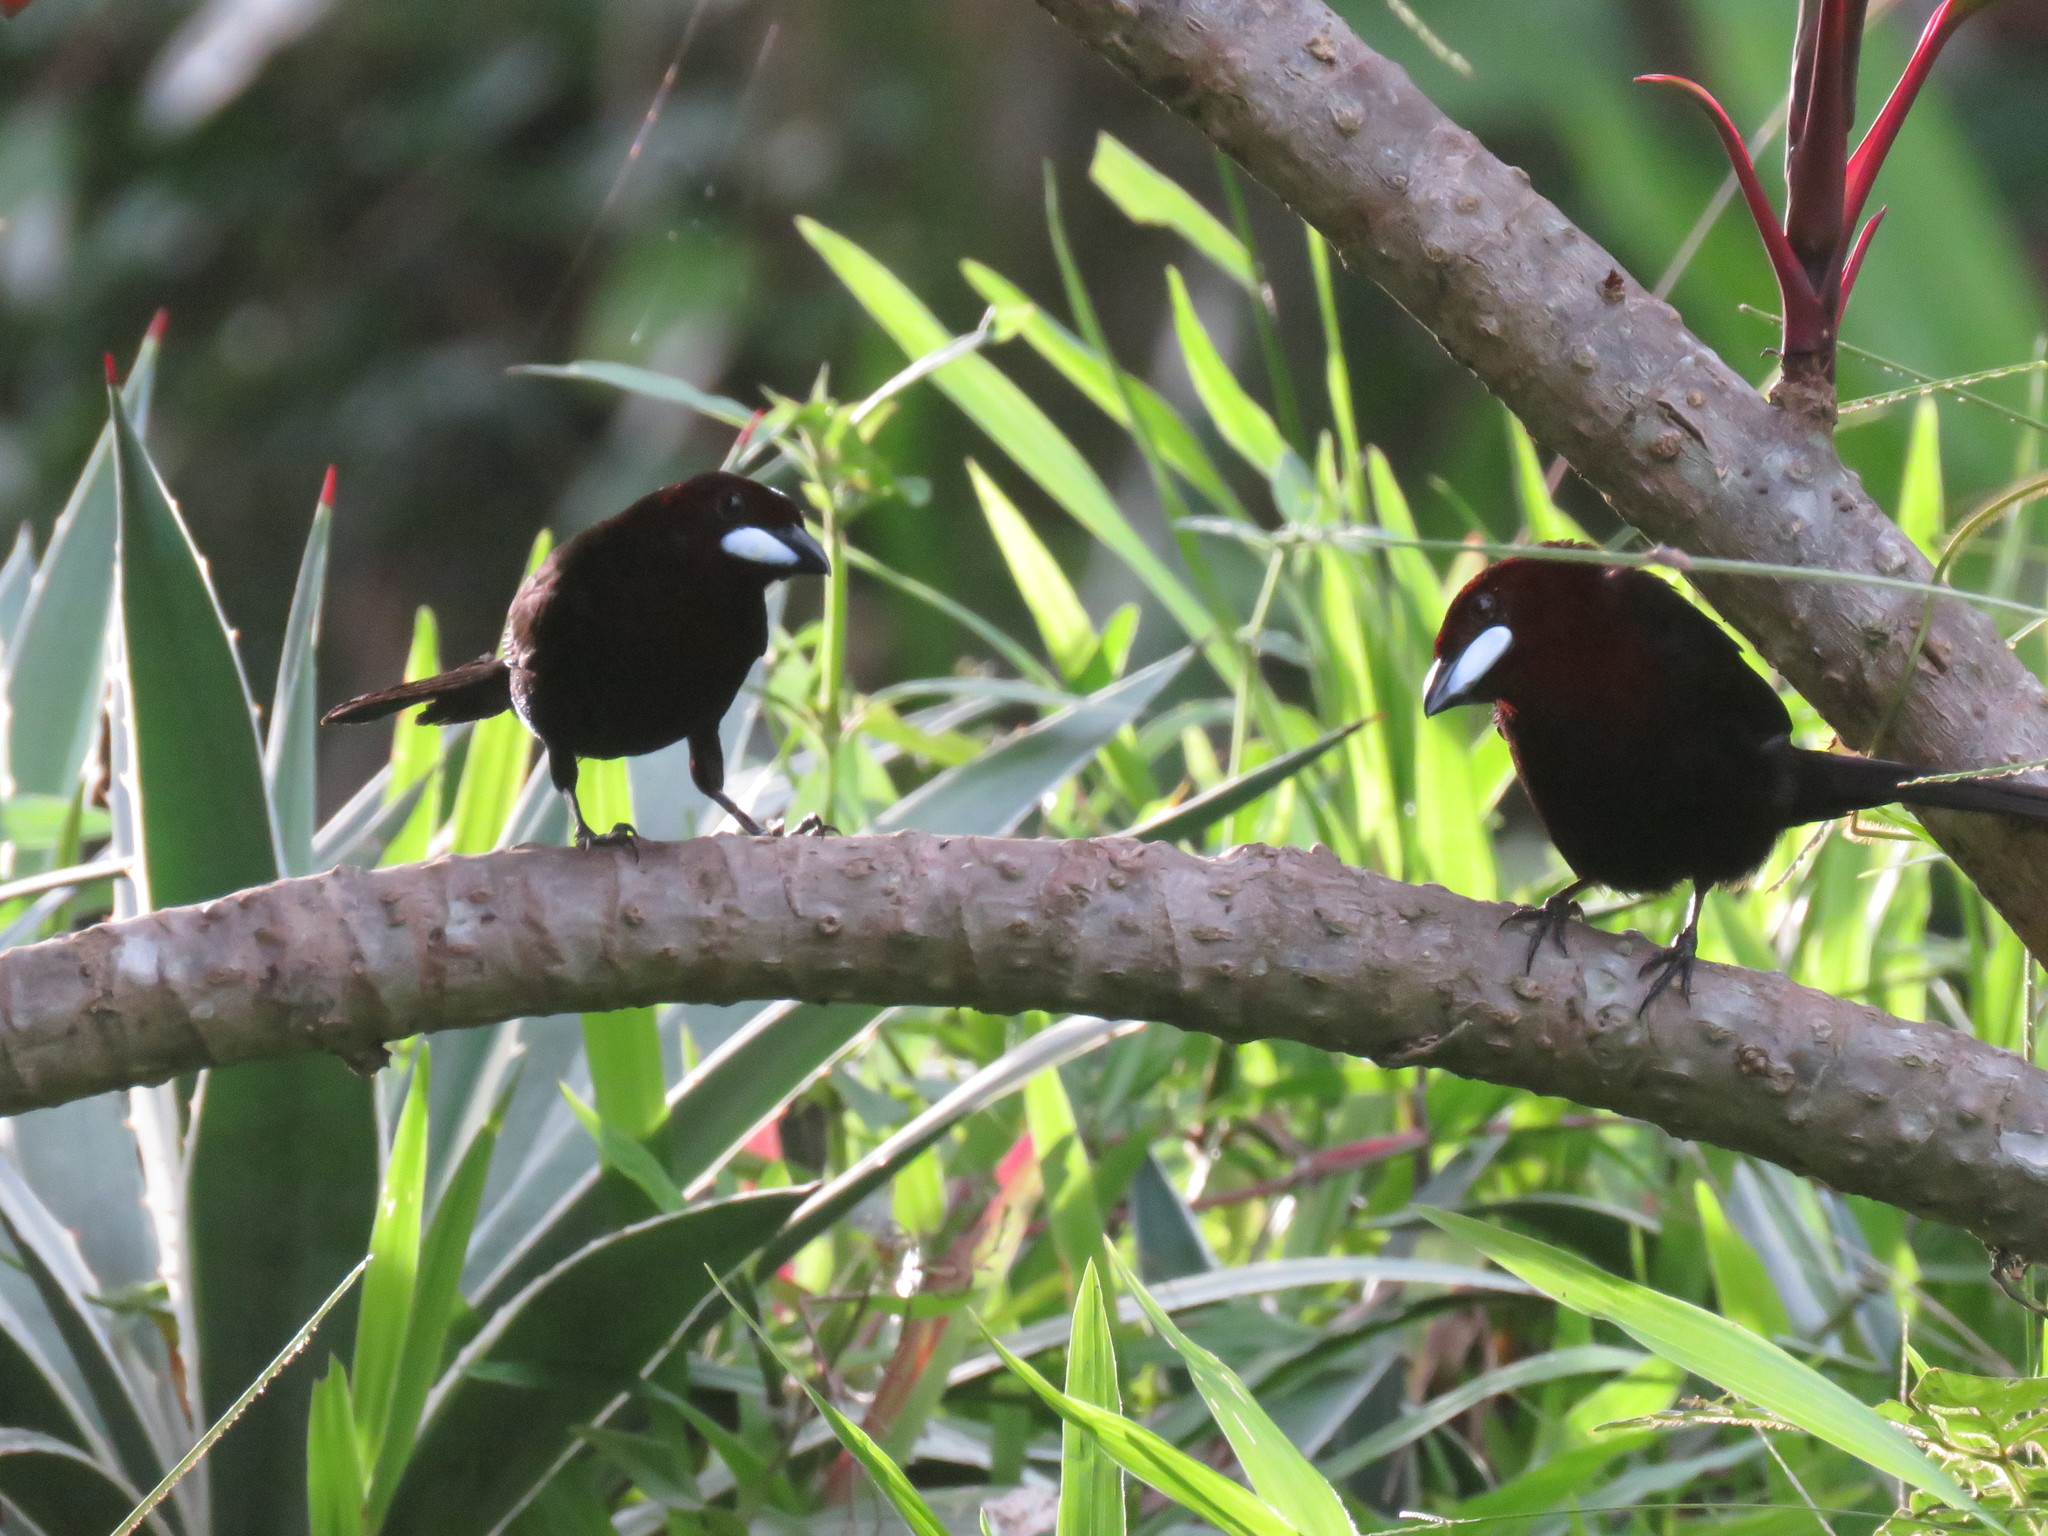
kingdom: Animalia
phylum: Chordata
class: Aves
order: Passeriformes
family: Thraupidae
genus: Ramphocelus
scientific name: Ramphocelus carbo
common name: Silver-beaked tanager
